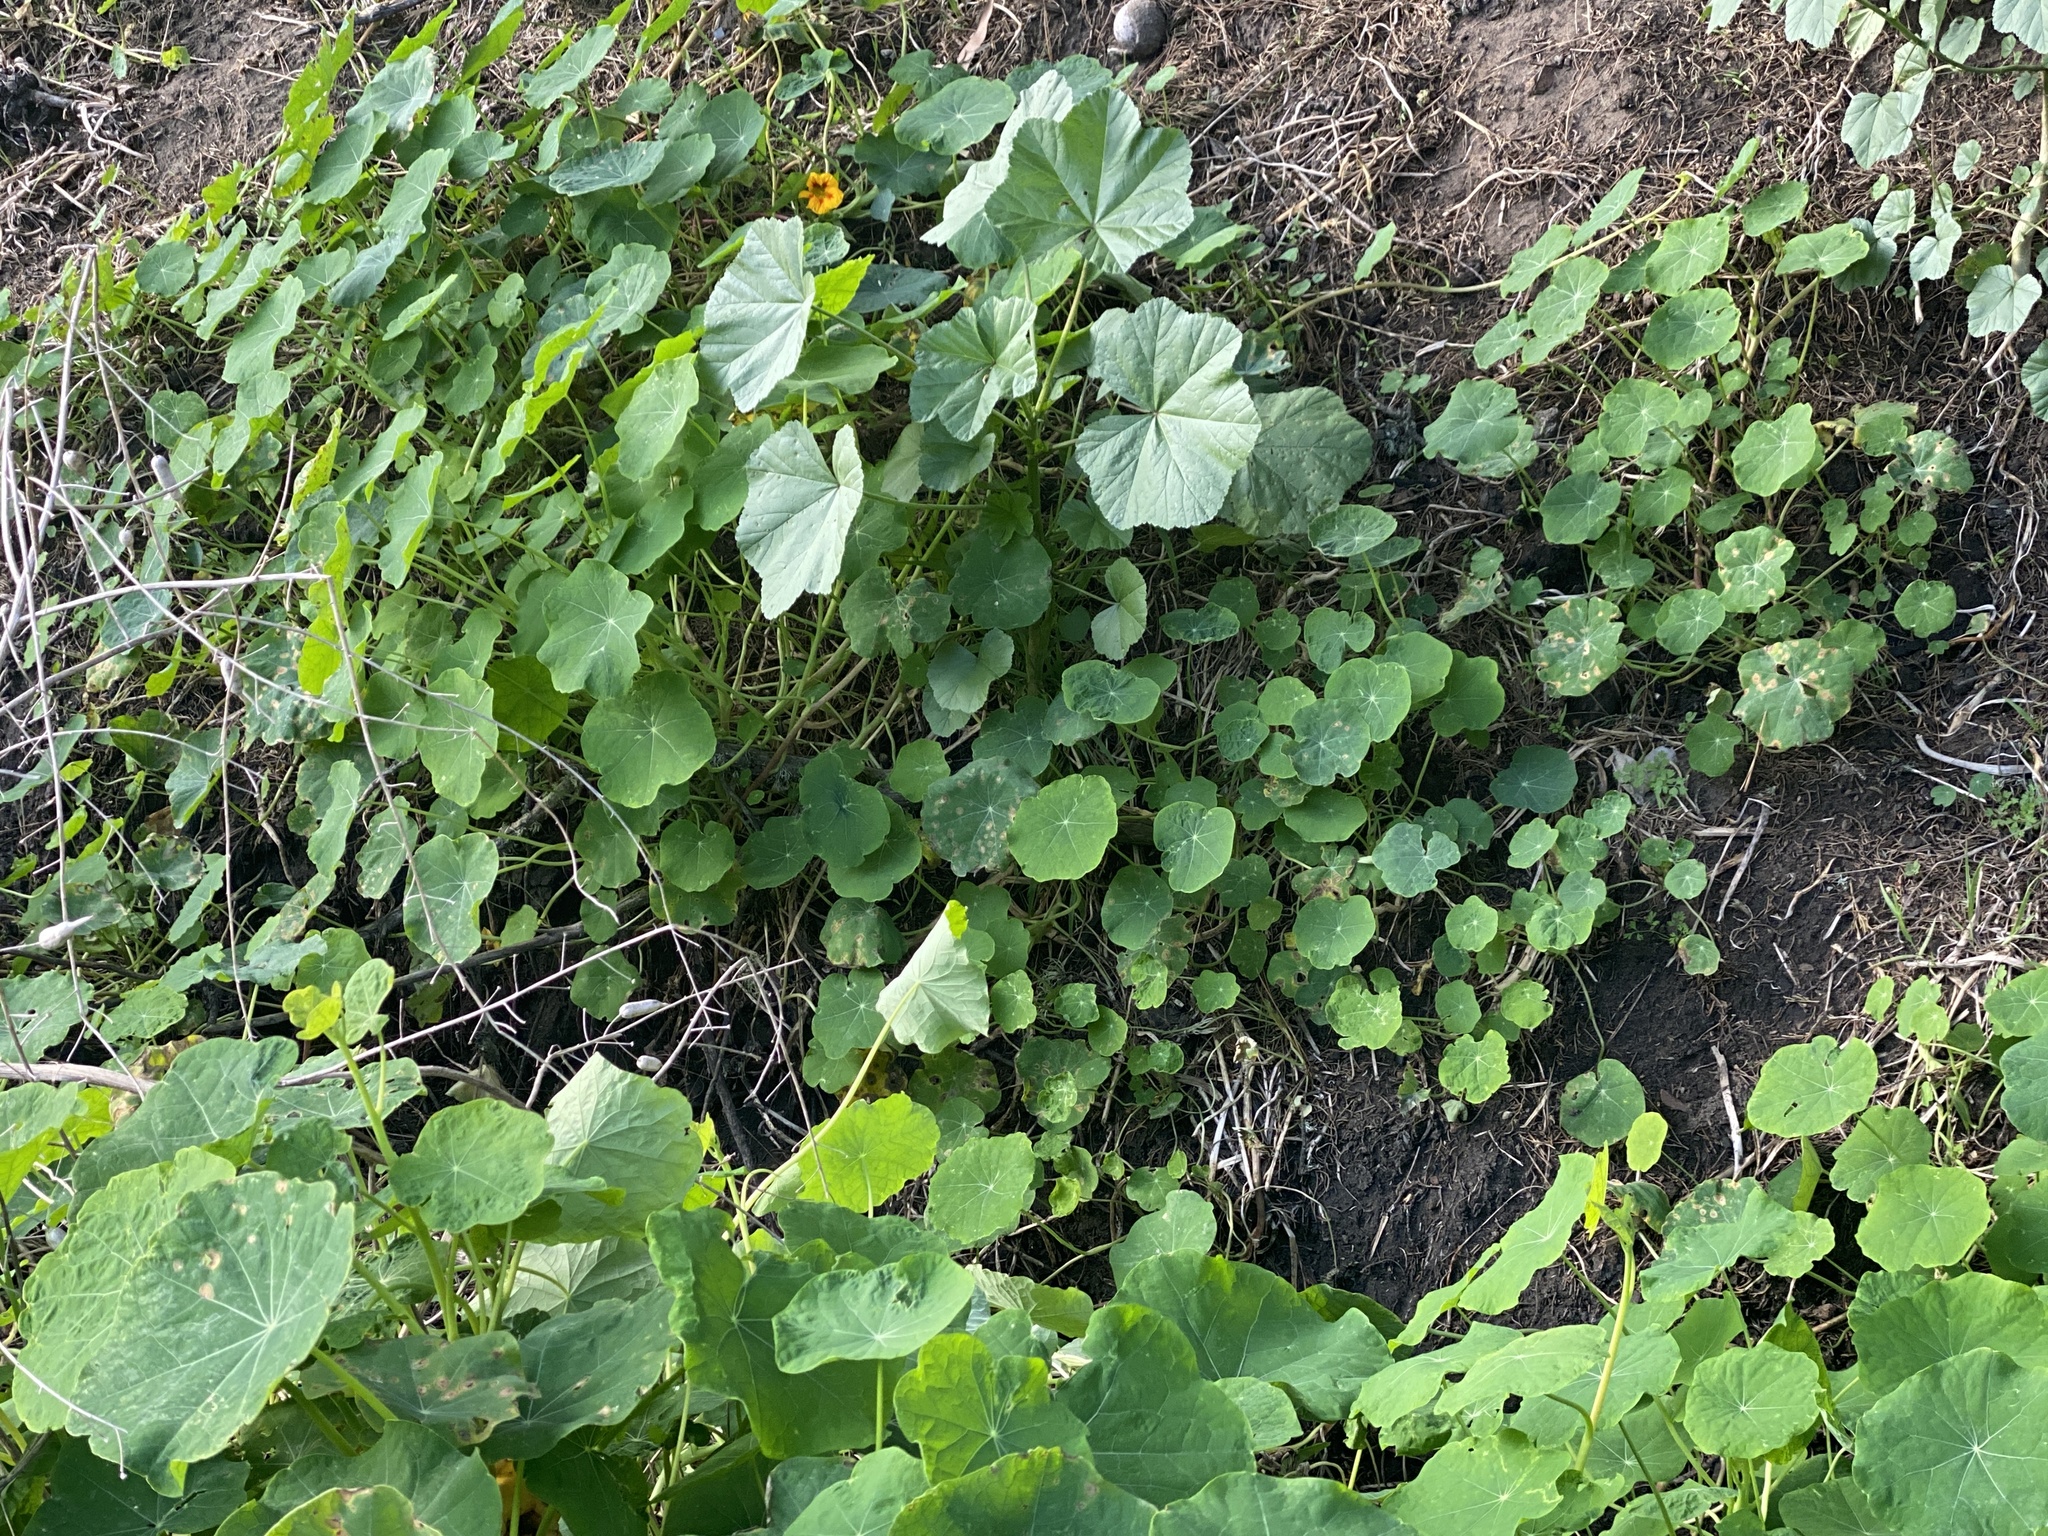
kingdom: Plantae
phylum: Tracheophyta
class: Magnoliopsida
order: Brassicales
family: Tropaeolaceae
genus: Tropaeolum
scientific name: Tropaeolum majus
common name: Nasturtium
